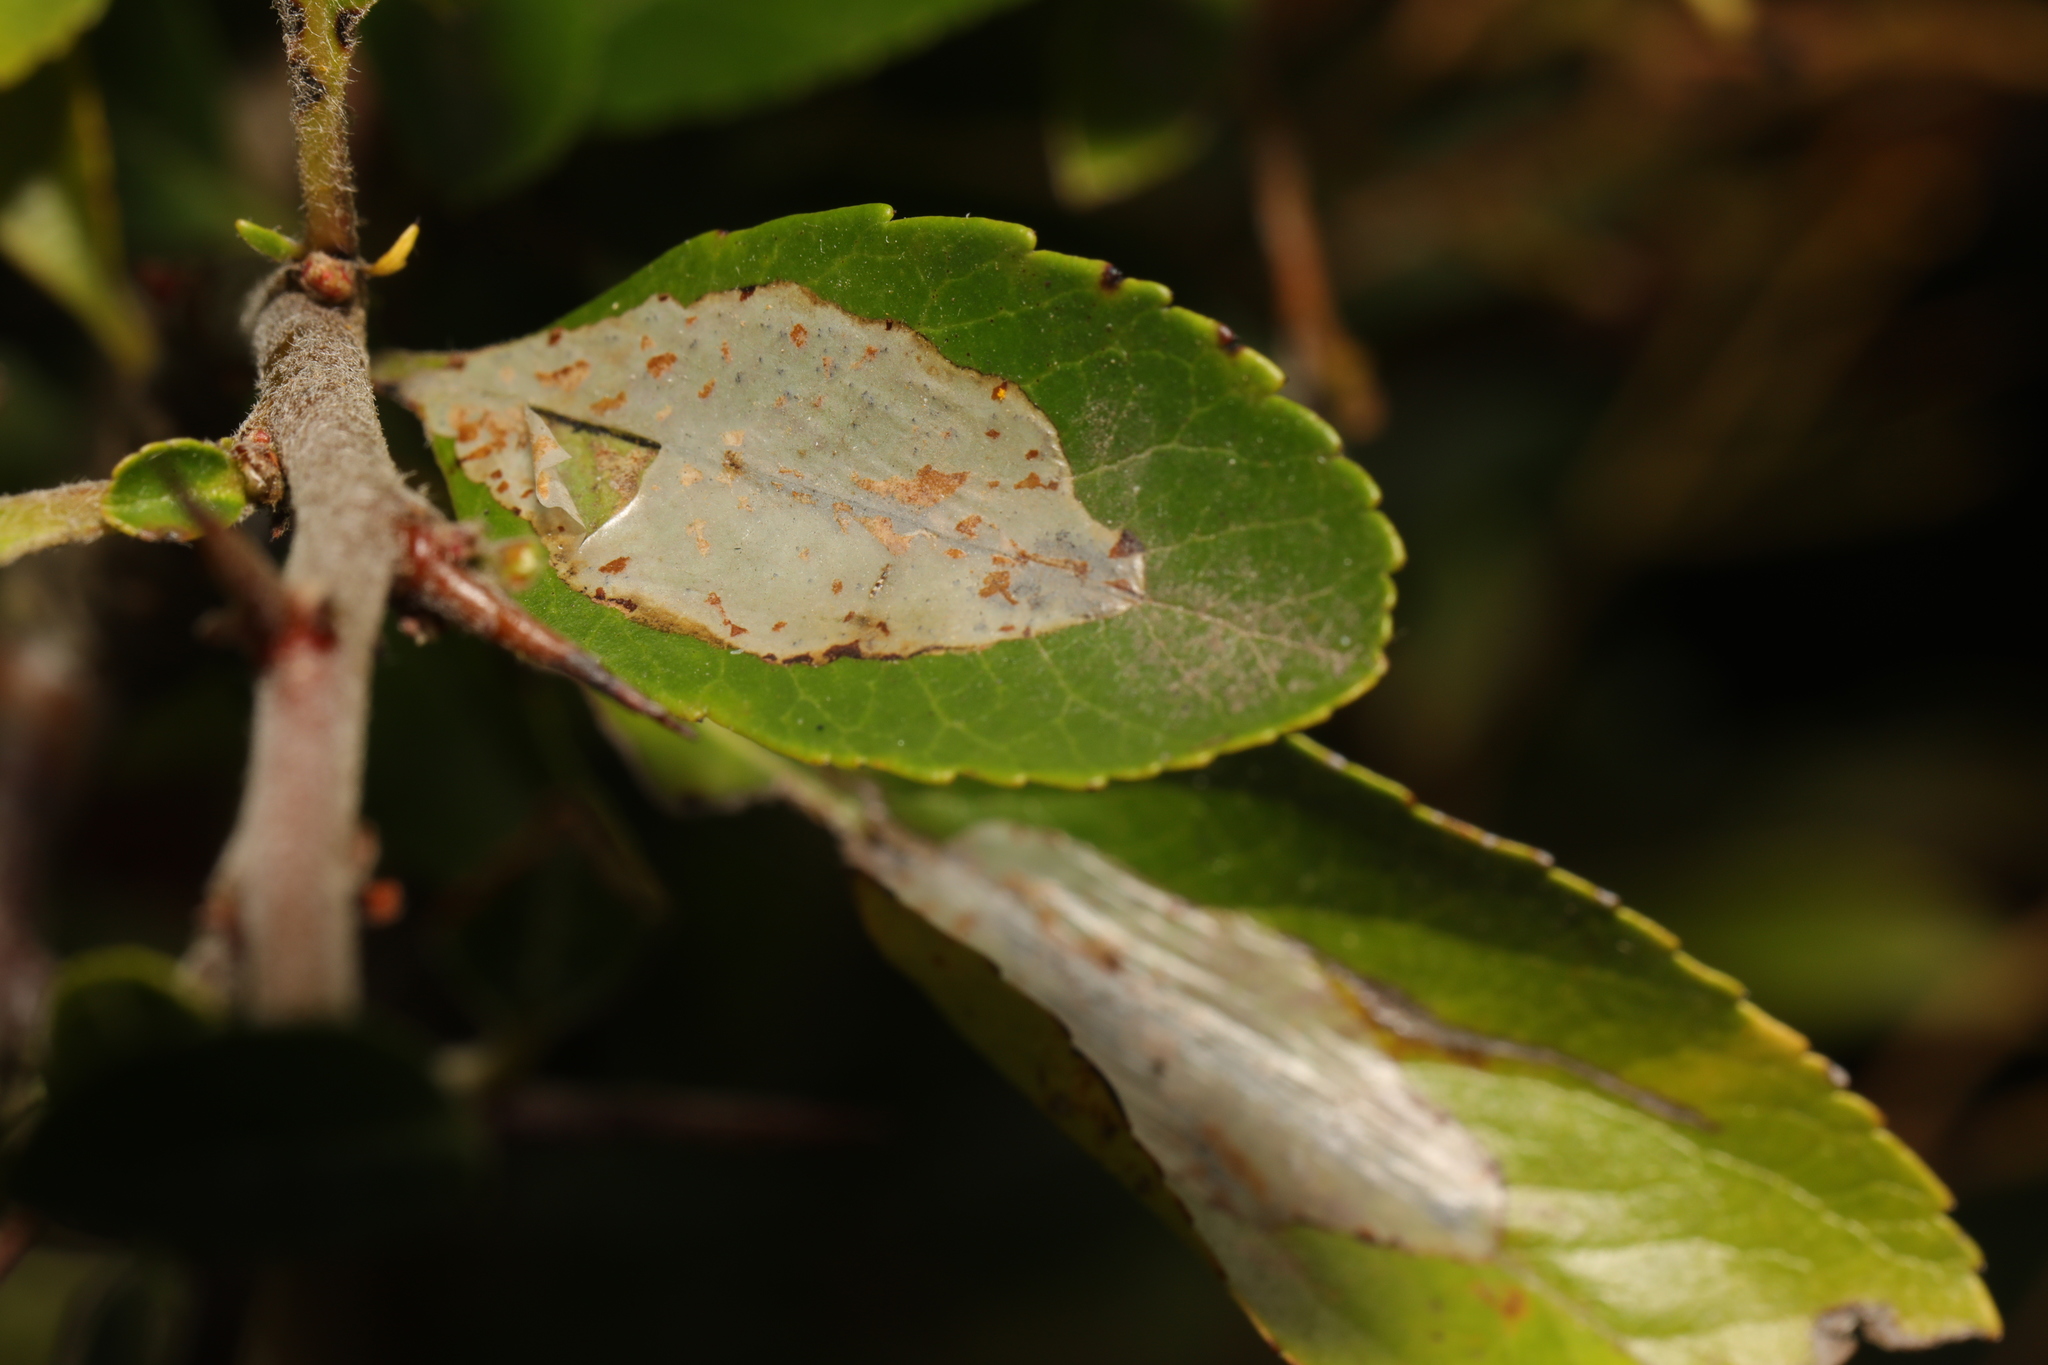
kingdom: Animalia
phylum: Arthropoda
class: Insecta
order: Lepidoptera
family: Gracillariidae
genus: Phyllonorycter
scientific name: Phyllonorycter leucographella
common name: Firethorn leaf-miner
